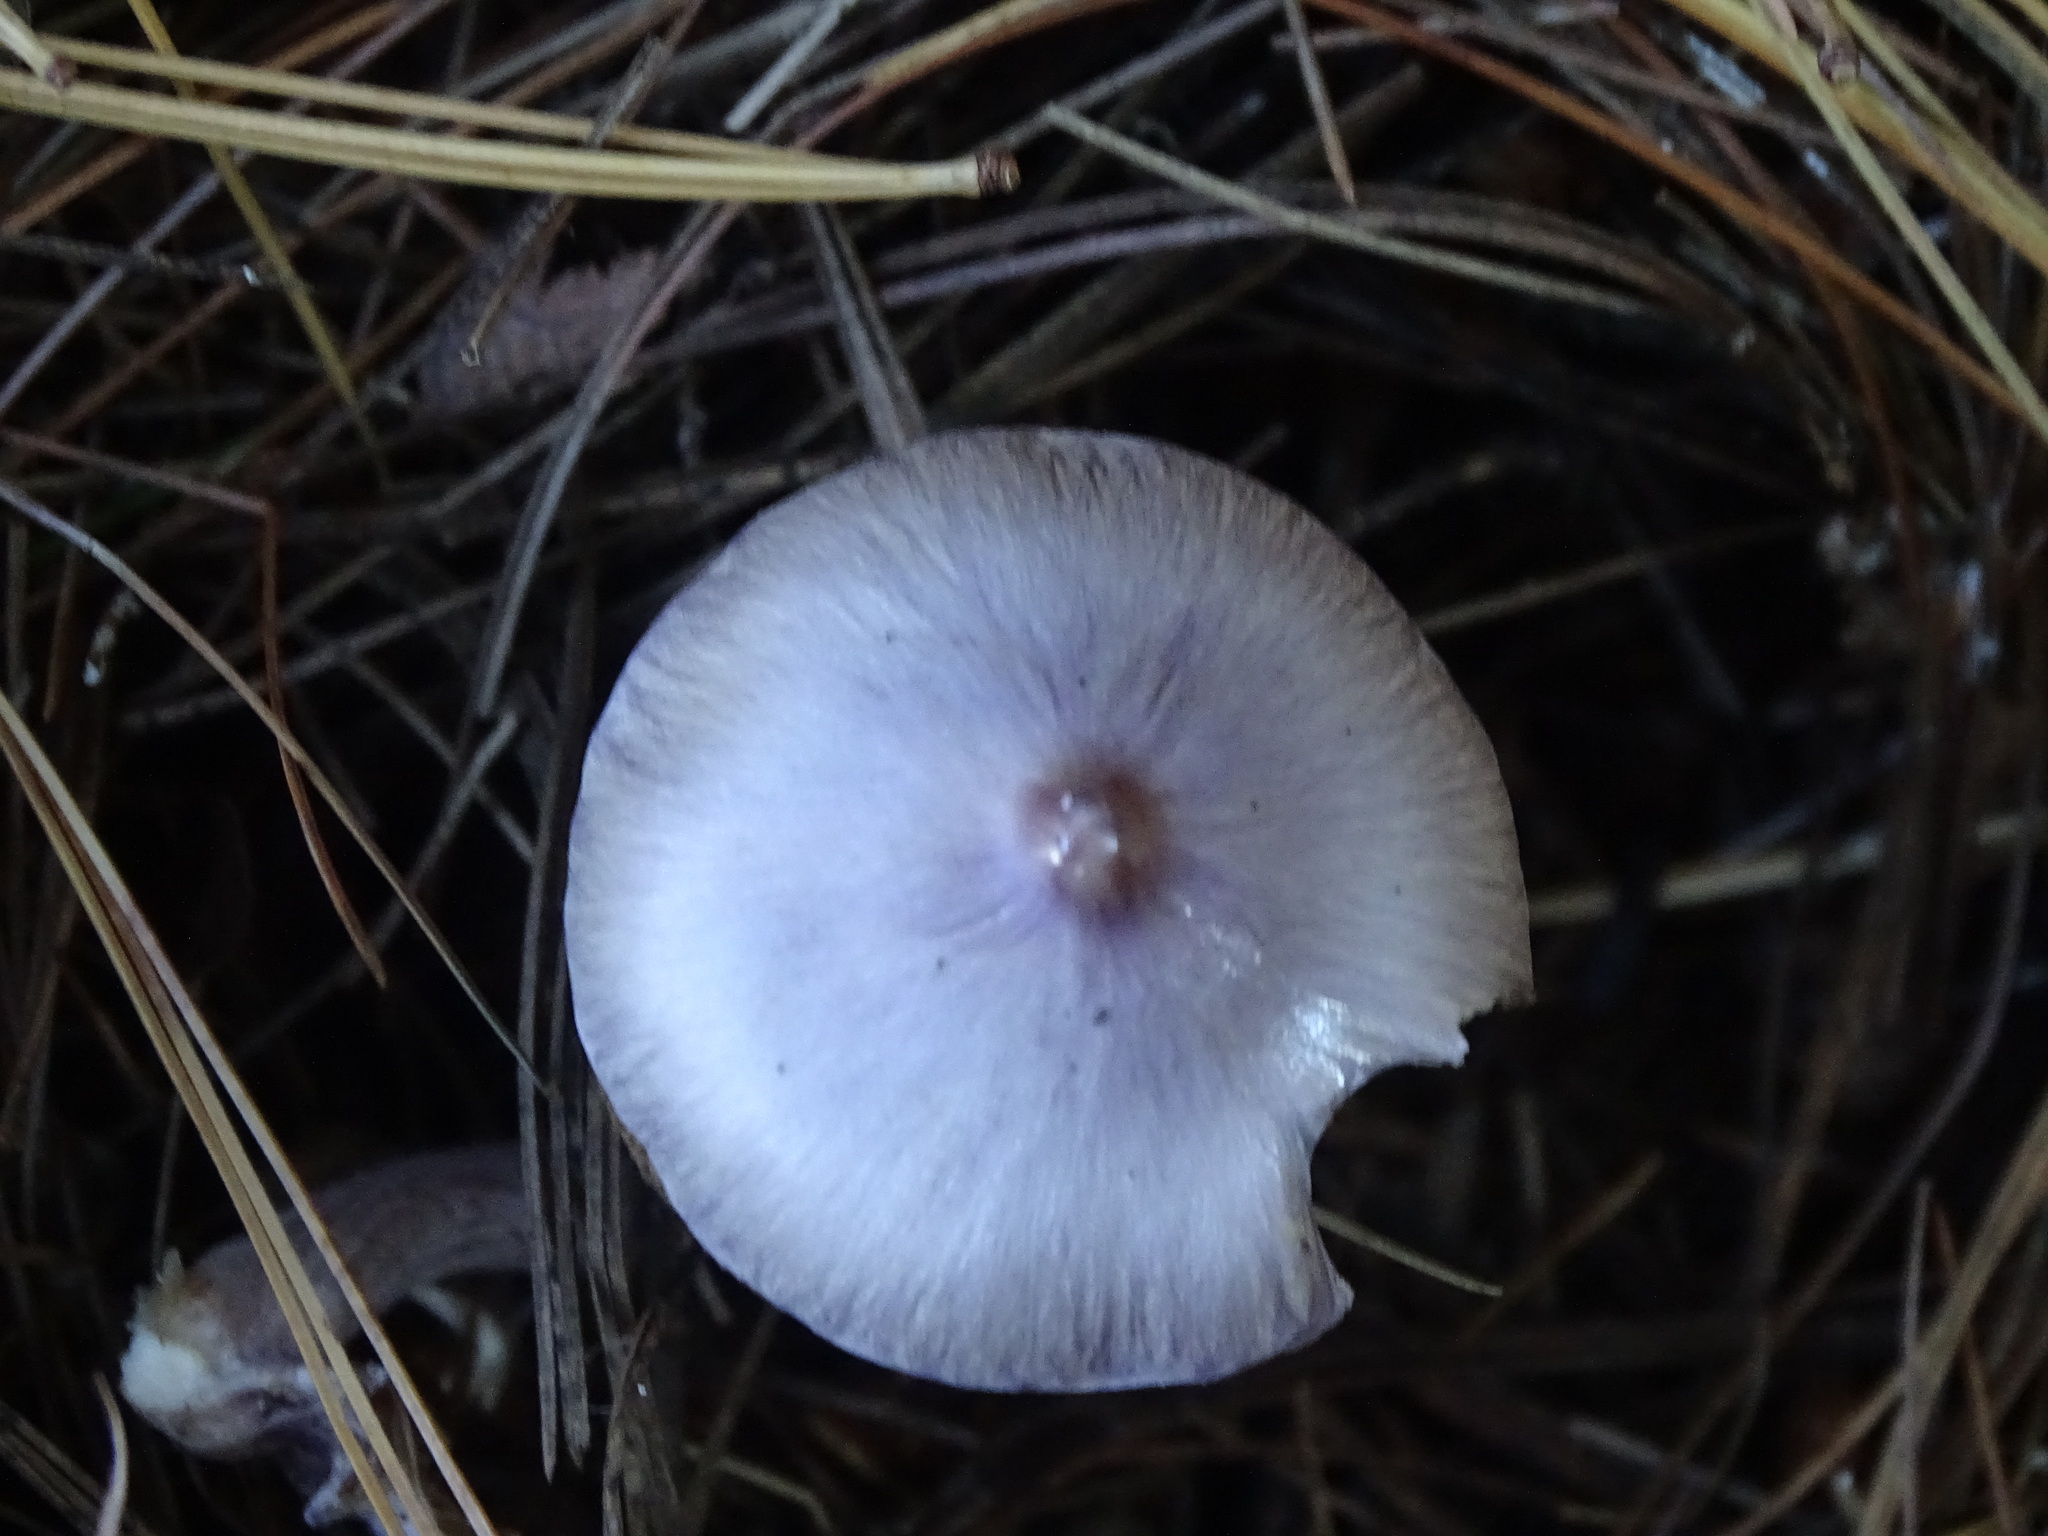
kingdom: Fungi
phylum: Basidiomycota
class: Agaricomycetes
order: Agaricales
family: Inocybaceae
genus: Inocybe
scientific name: Inocybe geophylla
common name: White fibrecap
